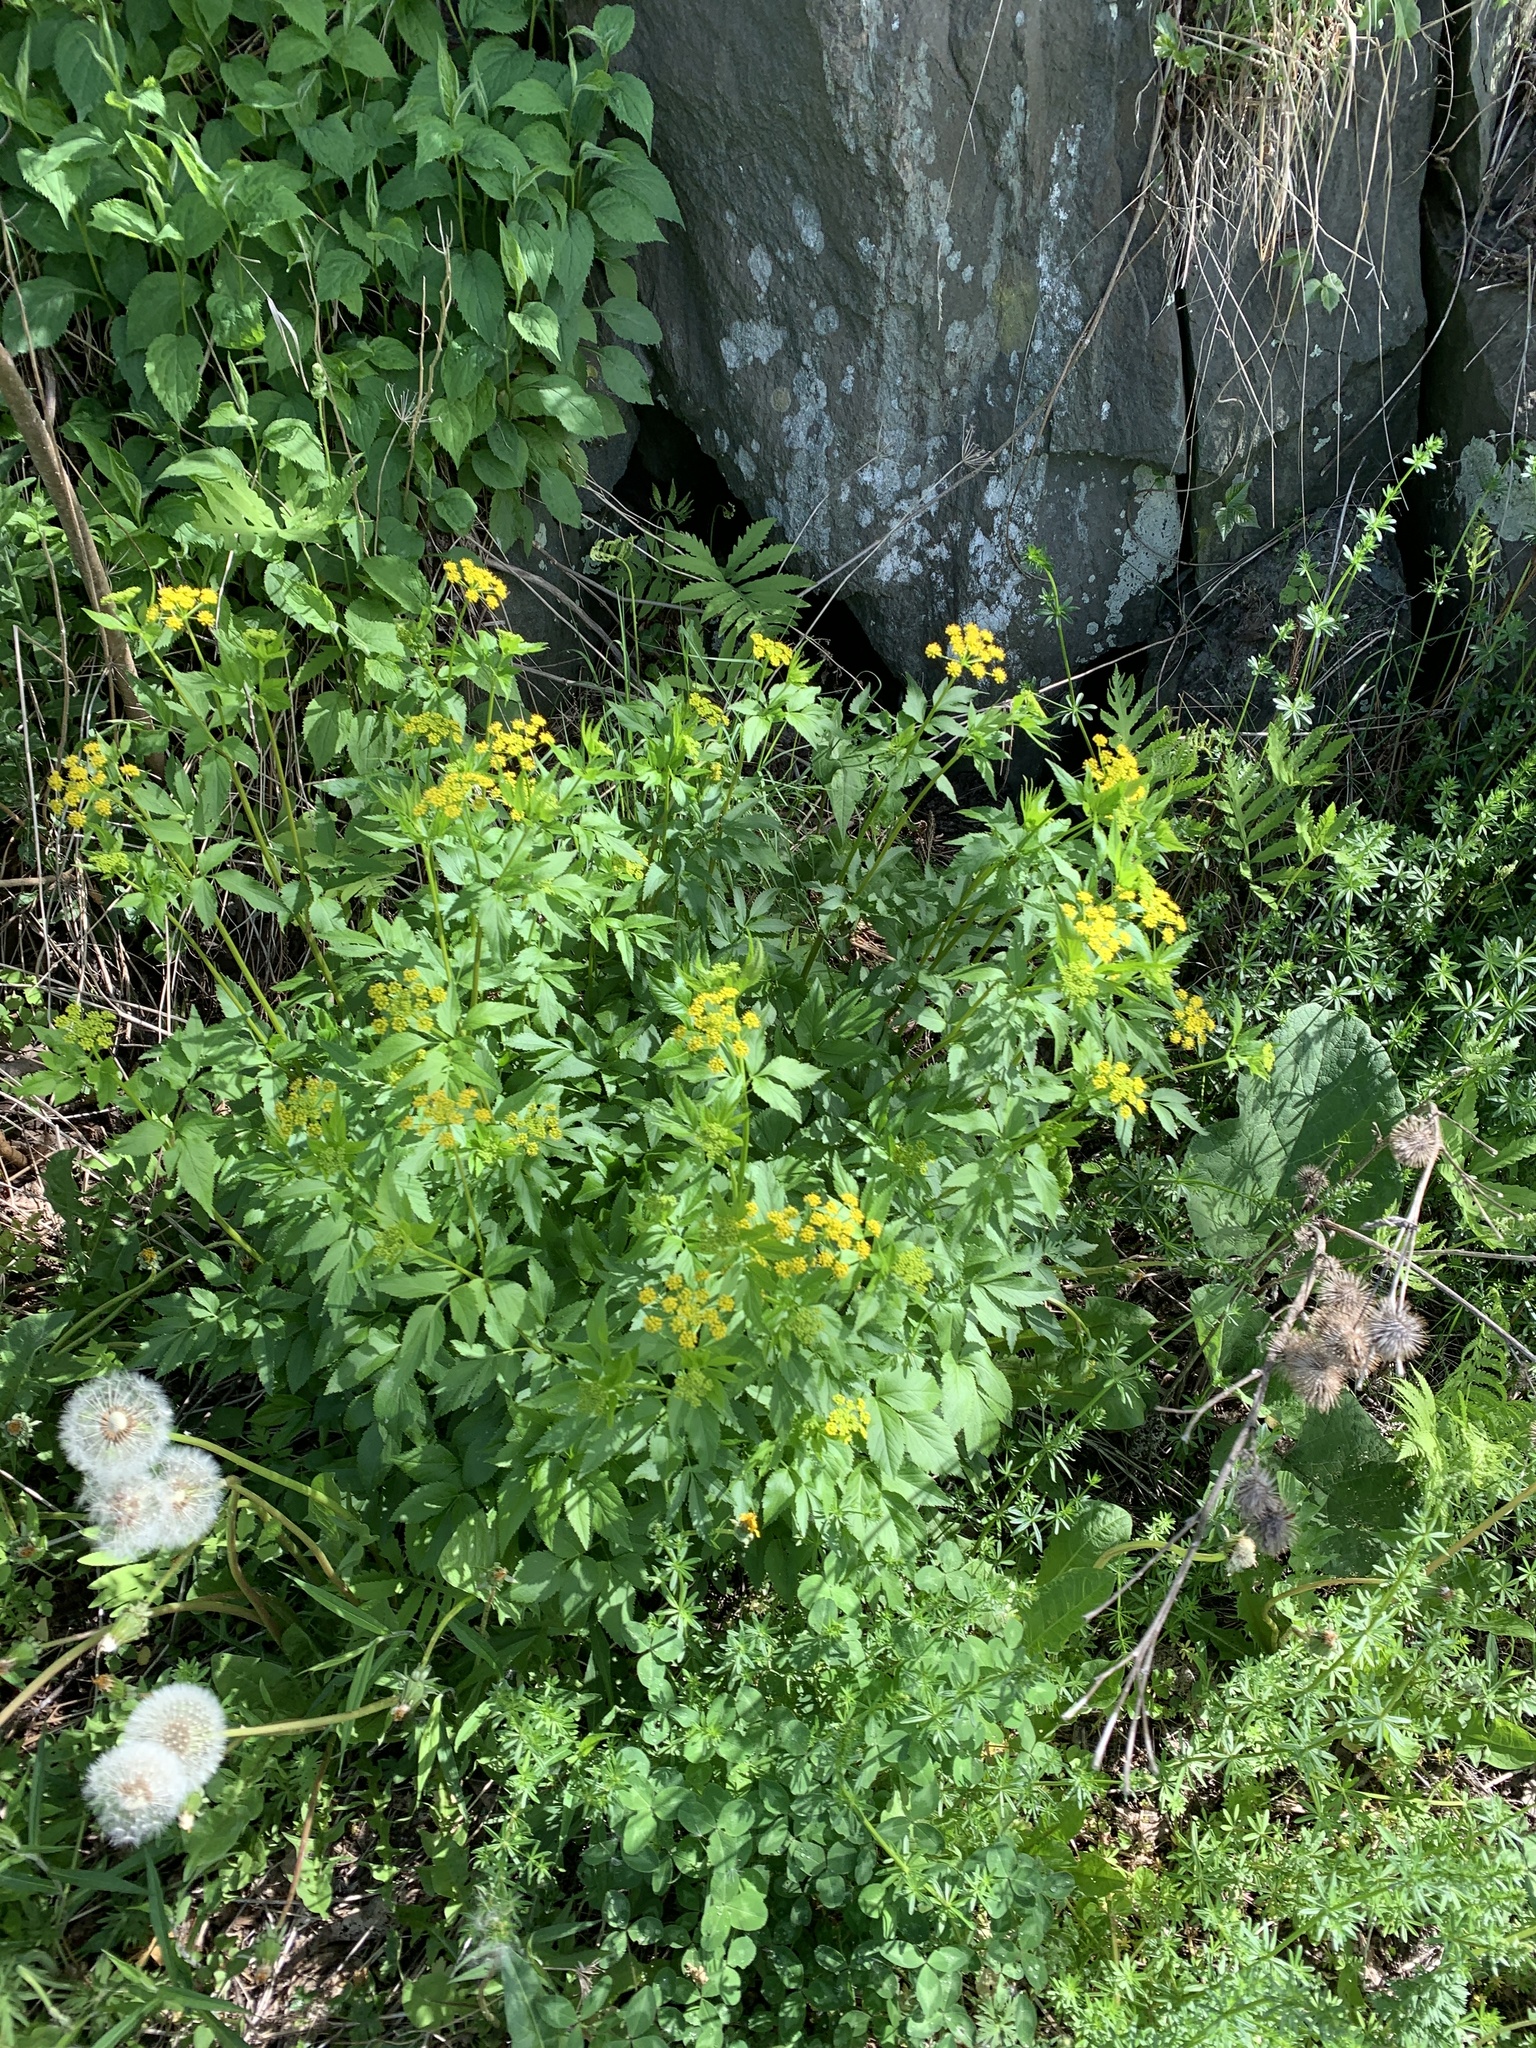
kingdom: Plantae
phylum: Tracheophyta
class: Magnoliopsida
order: Apiales
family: Apiaceae
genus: Zizia
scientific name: Zizia aurea
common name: Golden alexanders
